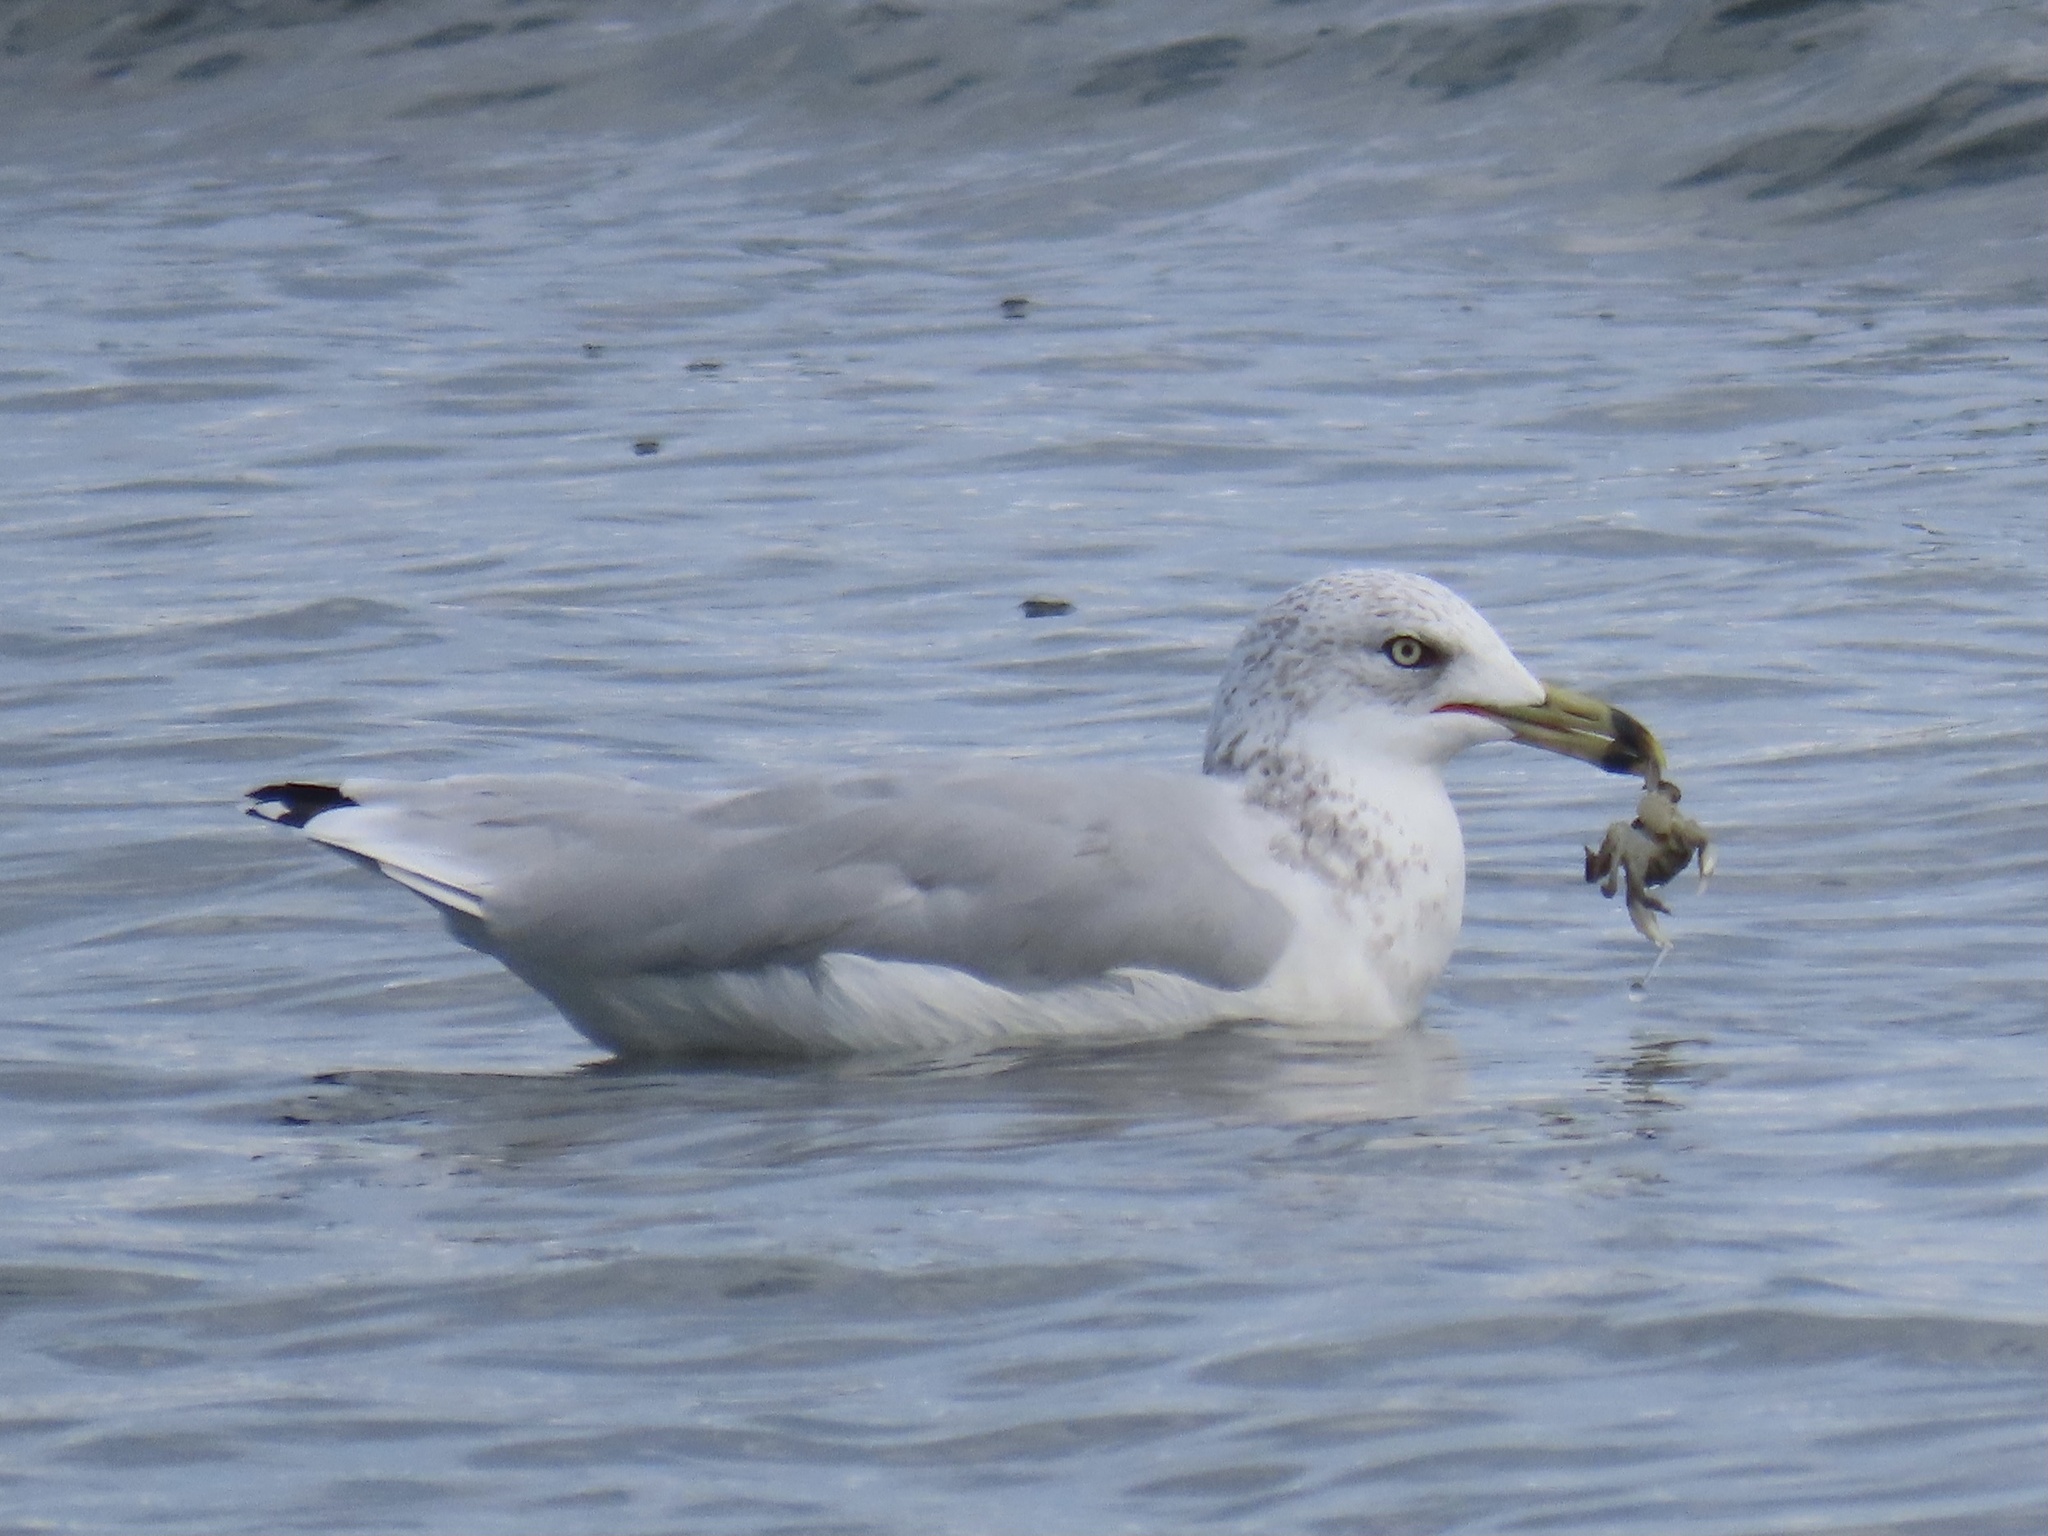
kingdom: Animalia
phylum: Chordata
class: Aves
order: Charadriiformes
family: Laridae
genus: Larus
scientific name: Larus delawarensis
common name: Ring-billed gull
